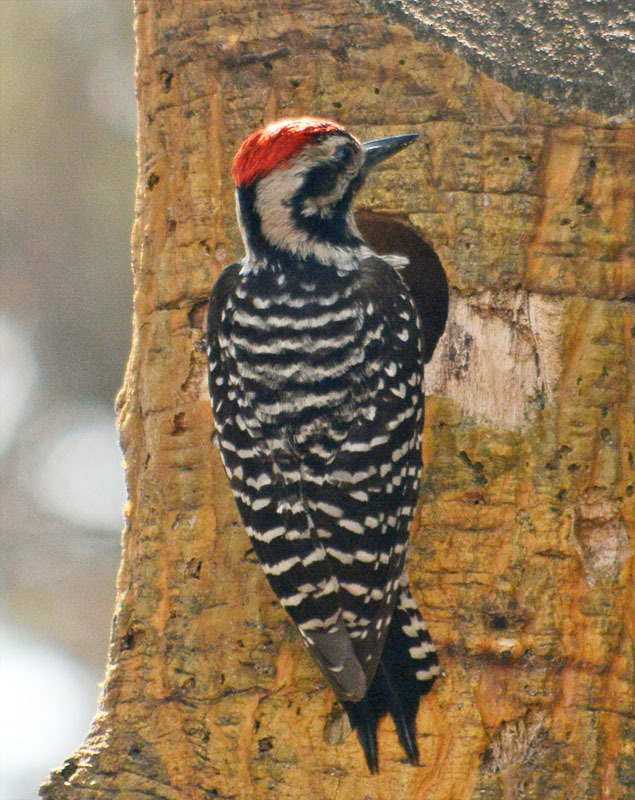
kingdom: Animalia
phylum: Chordata
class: Aves
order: Piciformes
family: Picidae
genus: Dryobates
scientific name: Dryobates scalaris
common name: Ladder-backed woodpecker
